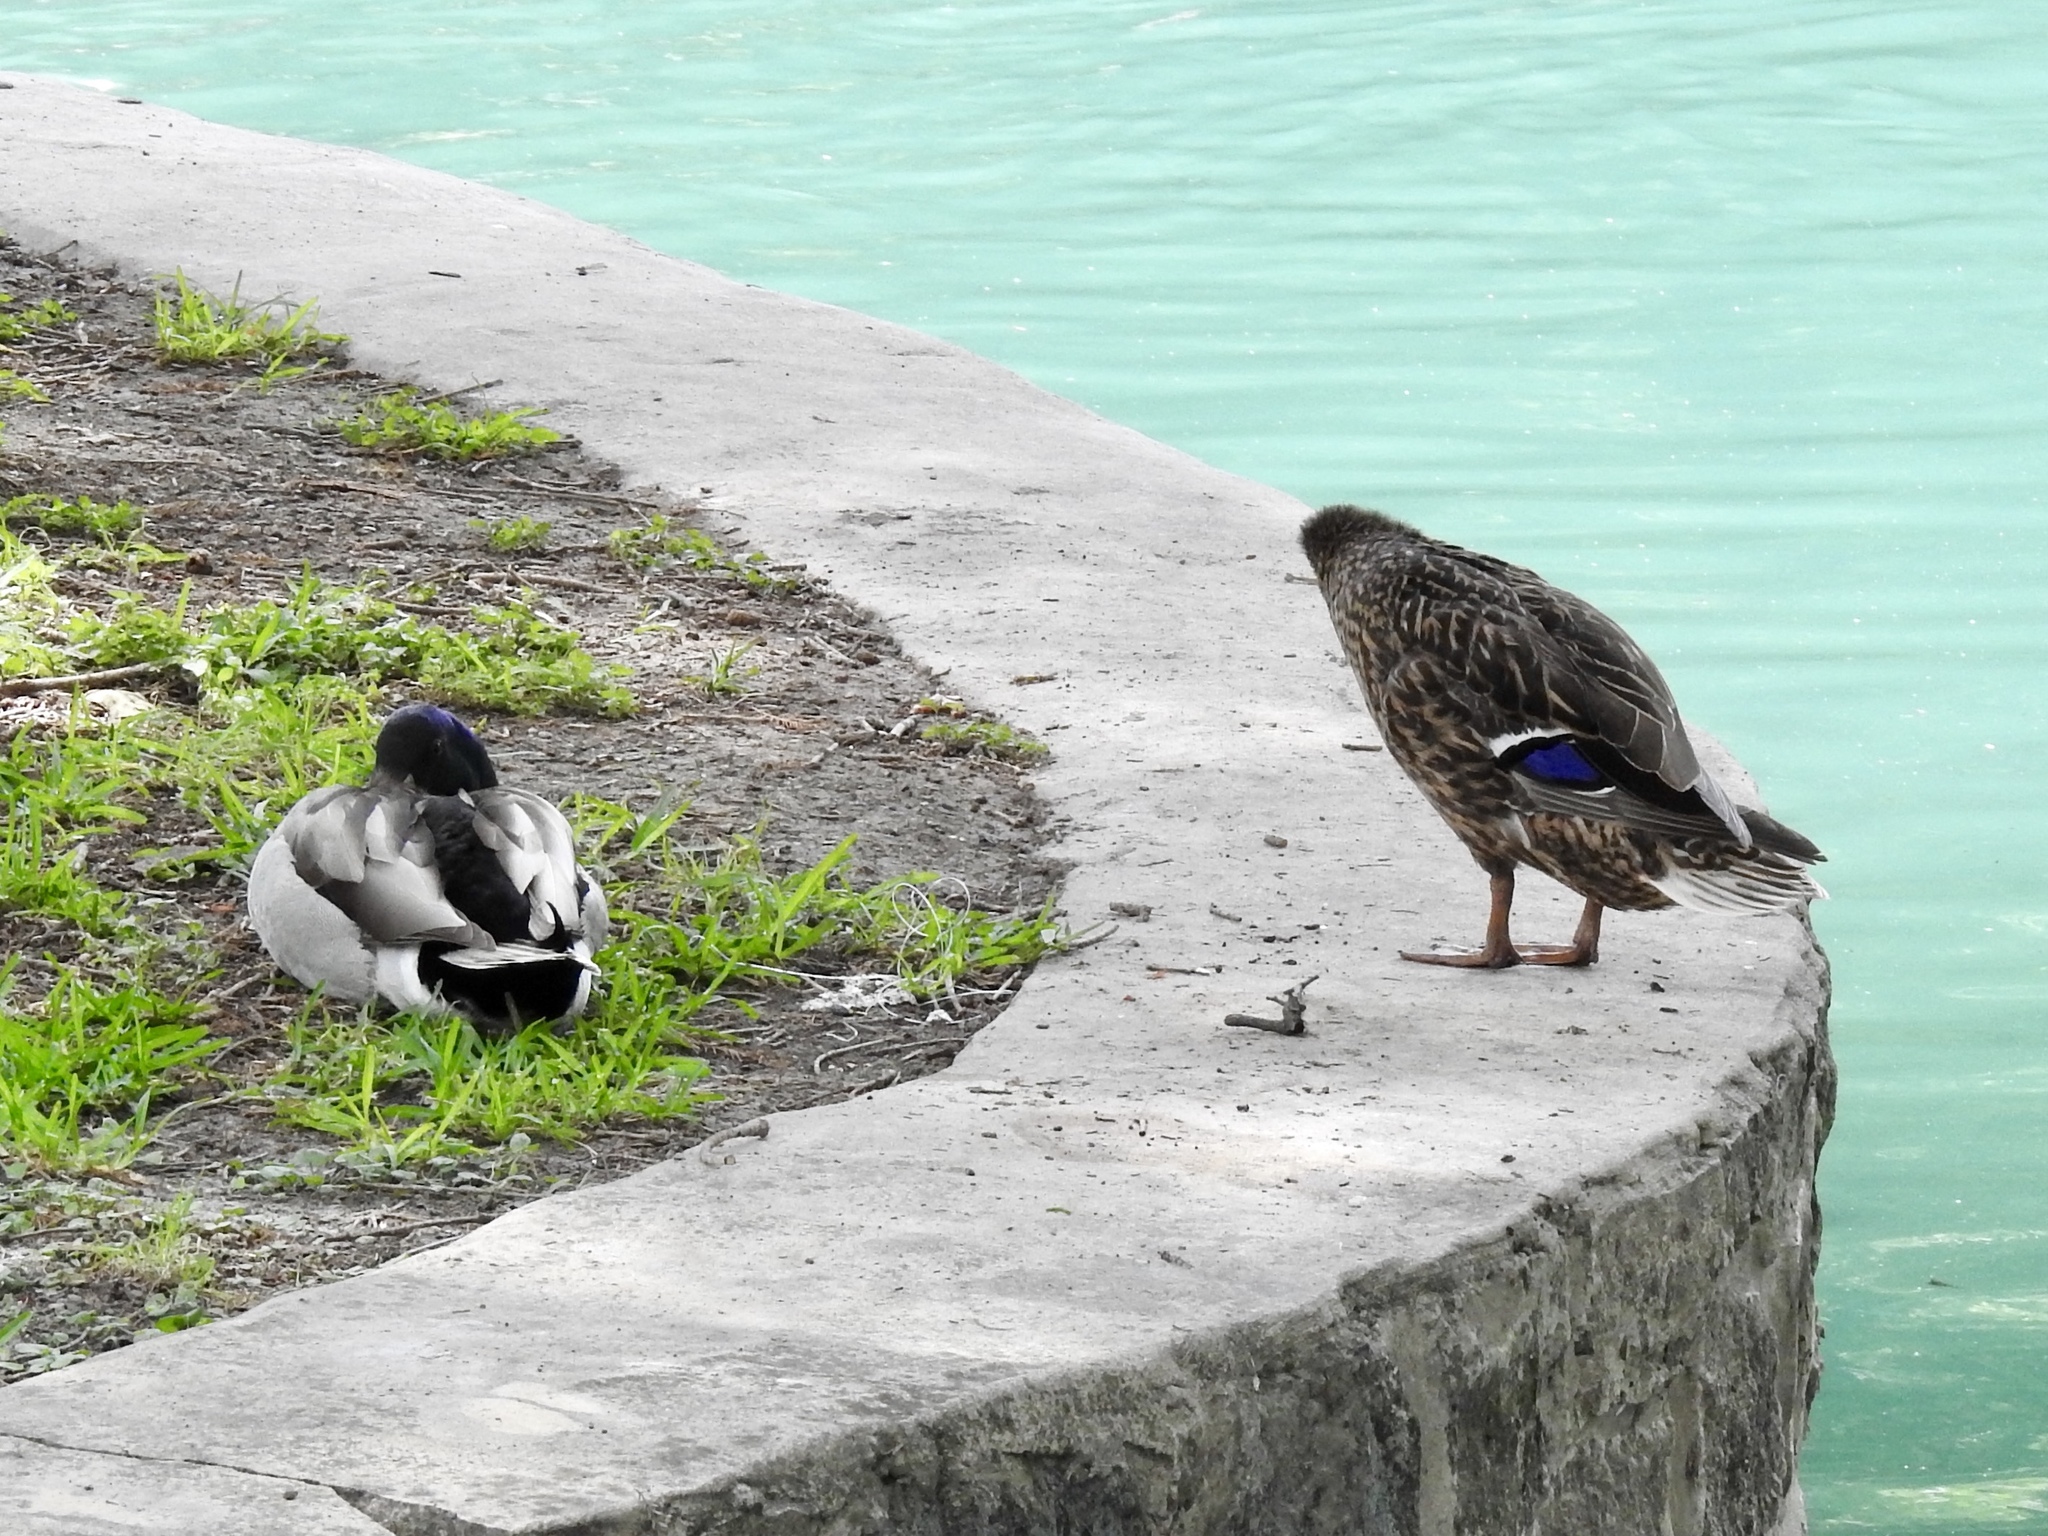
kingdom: Animalia
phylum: Chordata
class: Aves
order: Anseriformes
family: Anatidae
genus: Anas
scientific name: Anas platyrhynchos
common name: Mallard
